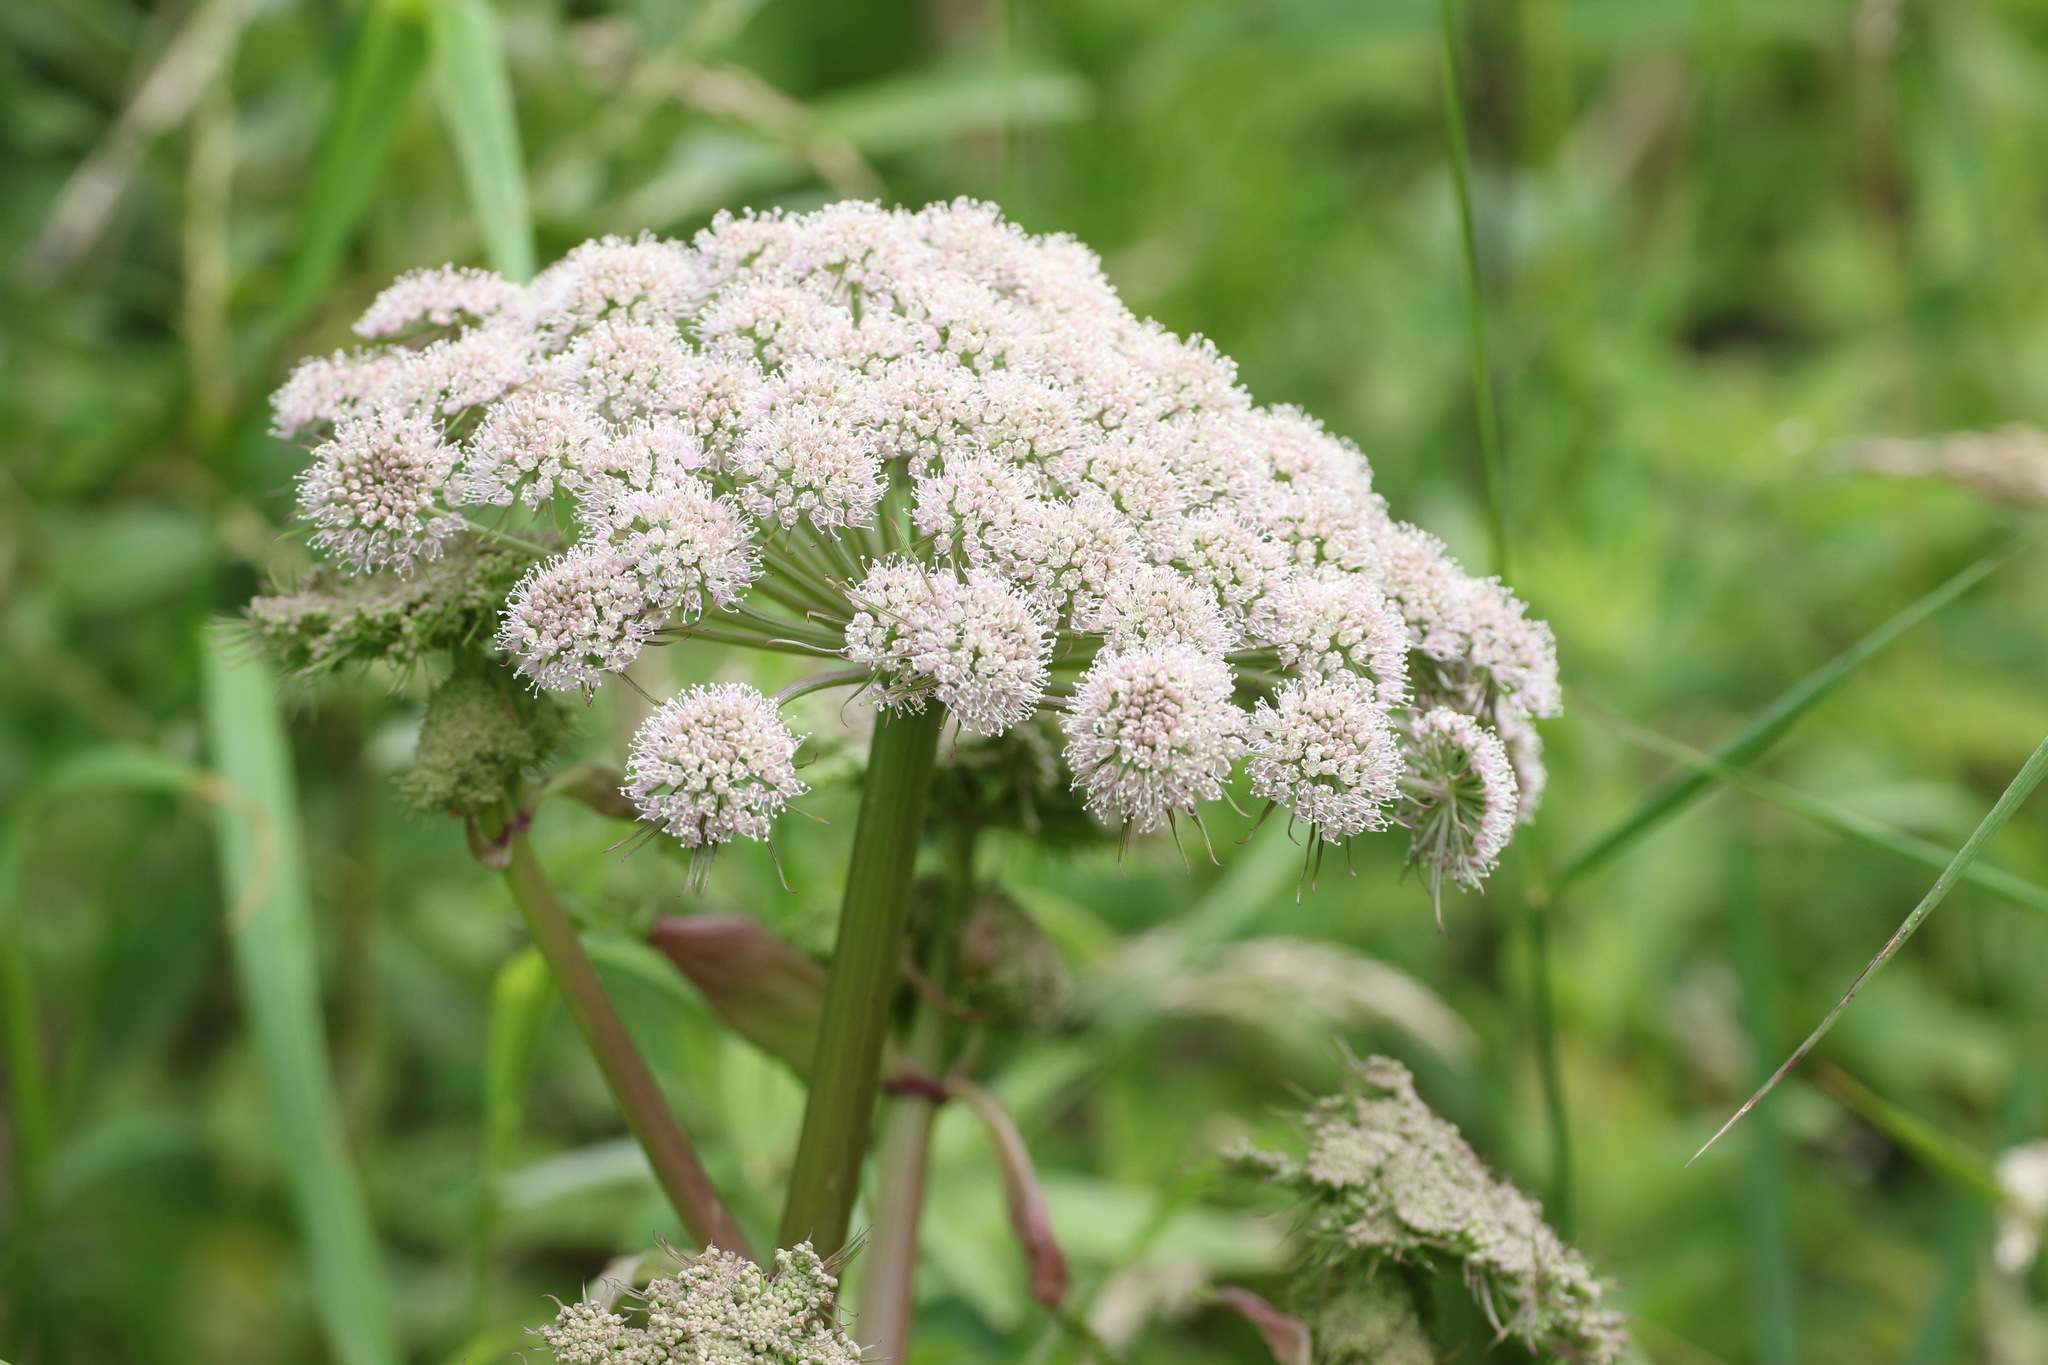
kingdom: Plantae
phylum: Tracheophyta
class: Magnoliopsida
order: Apiales
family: Apiaceae
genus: Angelica
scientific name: Angelica sylvestris
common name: Wild angelica
